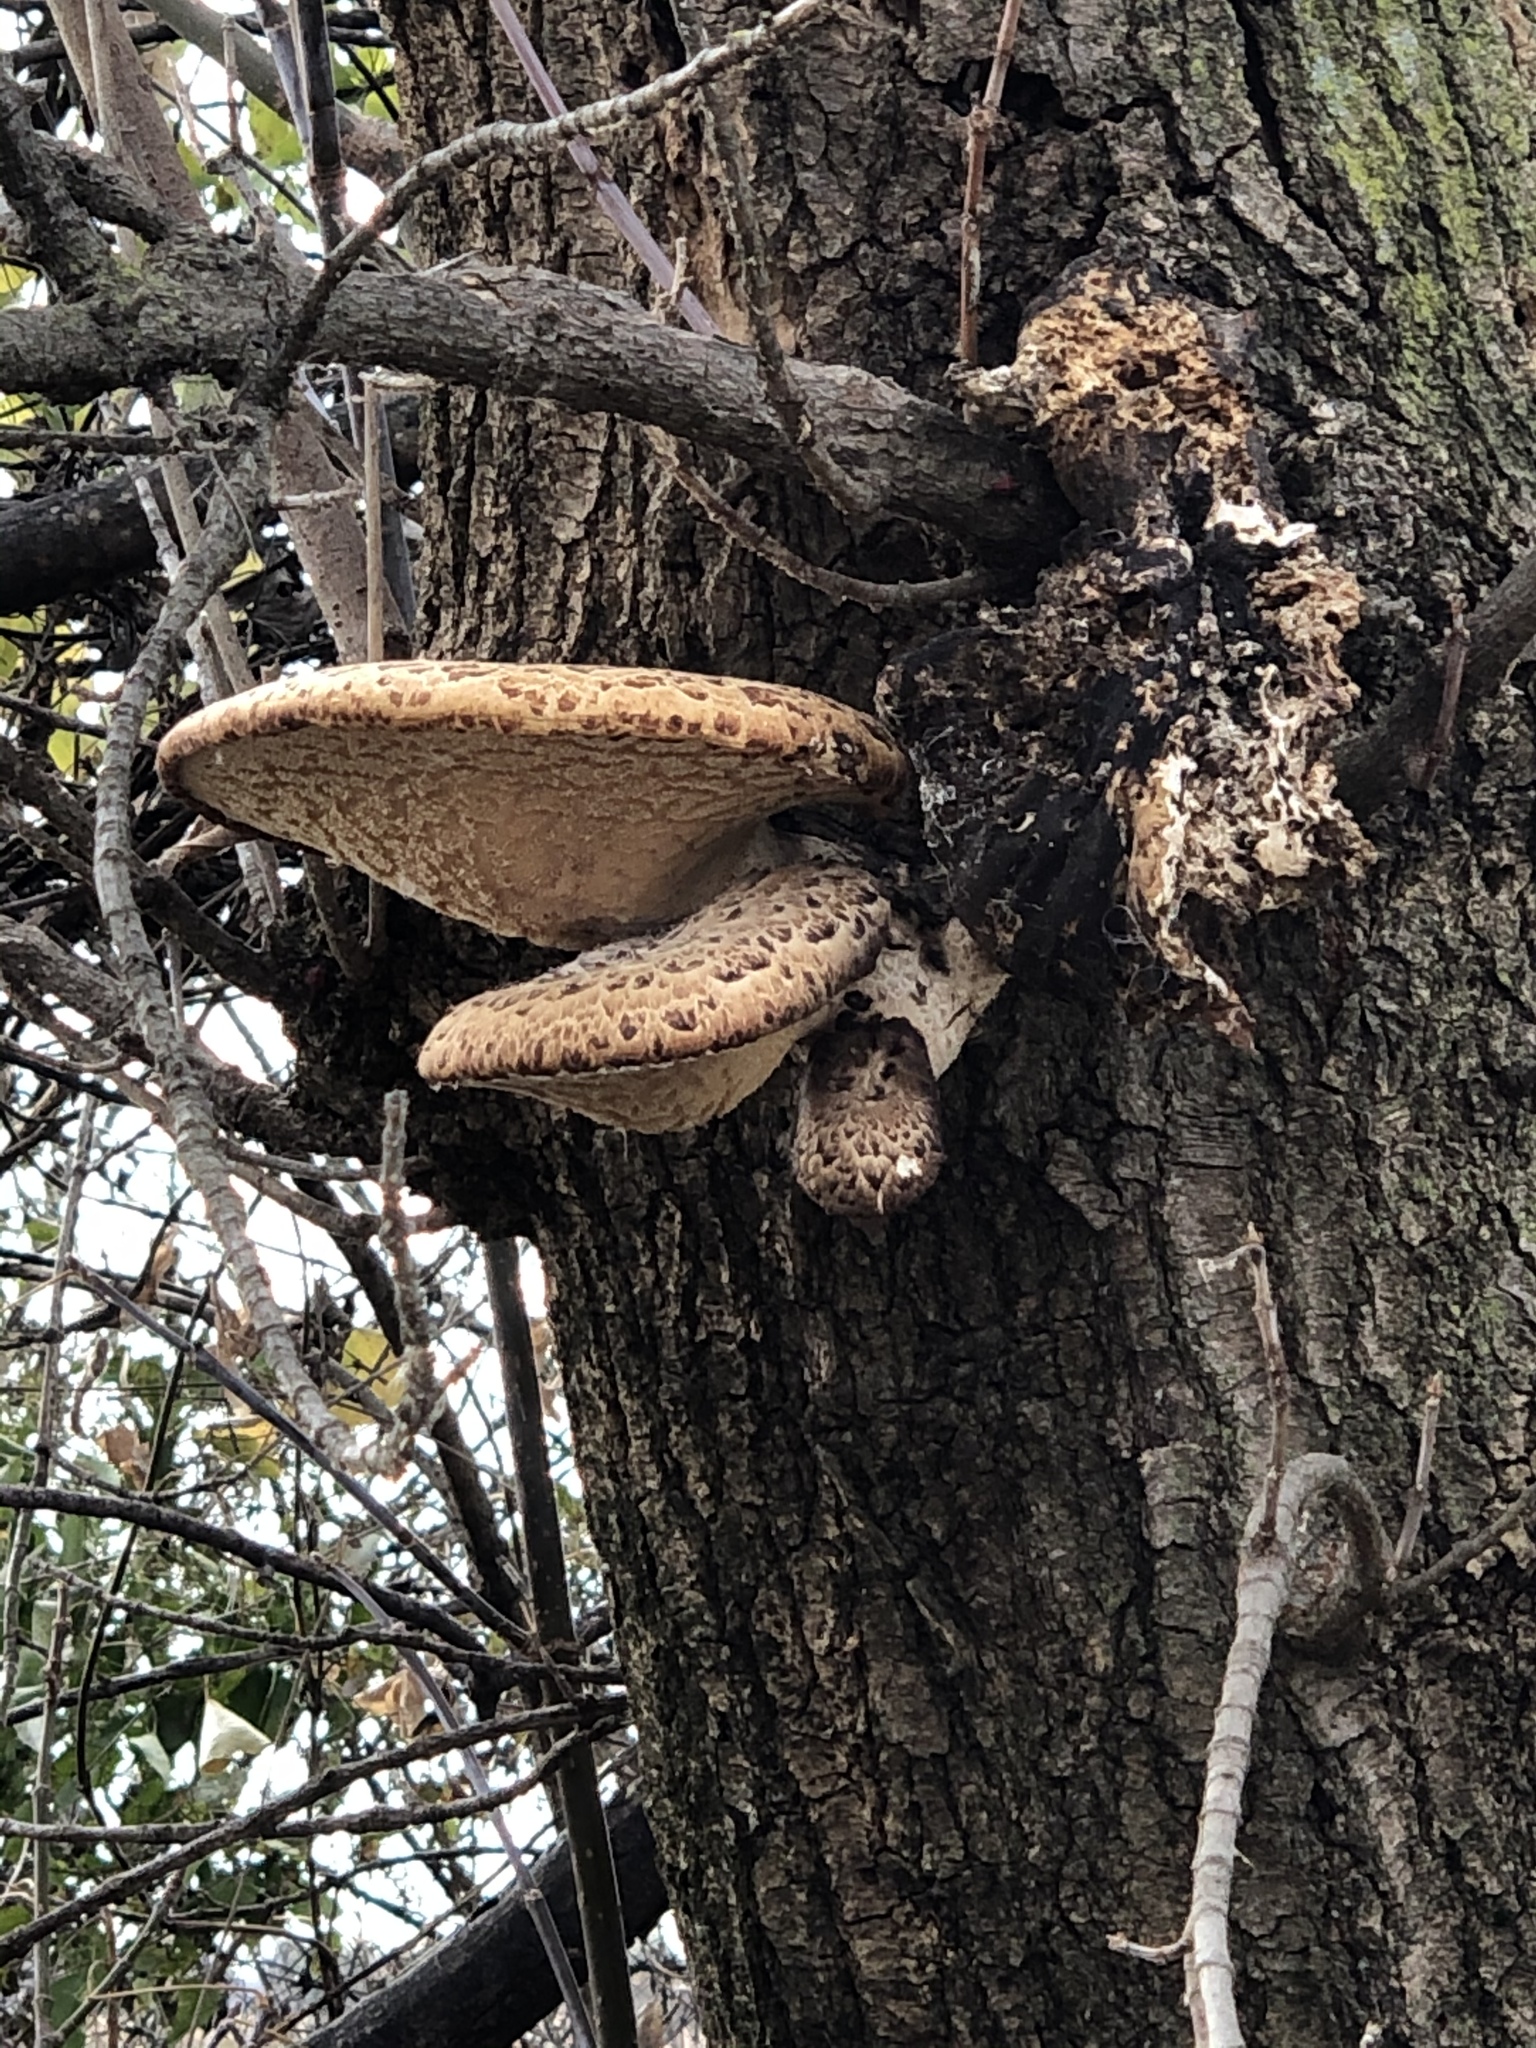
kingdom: Fungi
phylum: Basidiomycota
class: Agaricomycetes
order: Polyporales
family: Polyporaceae
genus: Cerioporus
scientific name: Cerioporus squamosus
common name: Dryad's saddle
